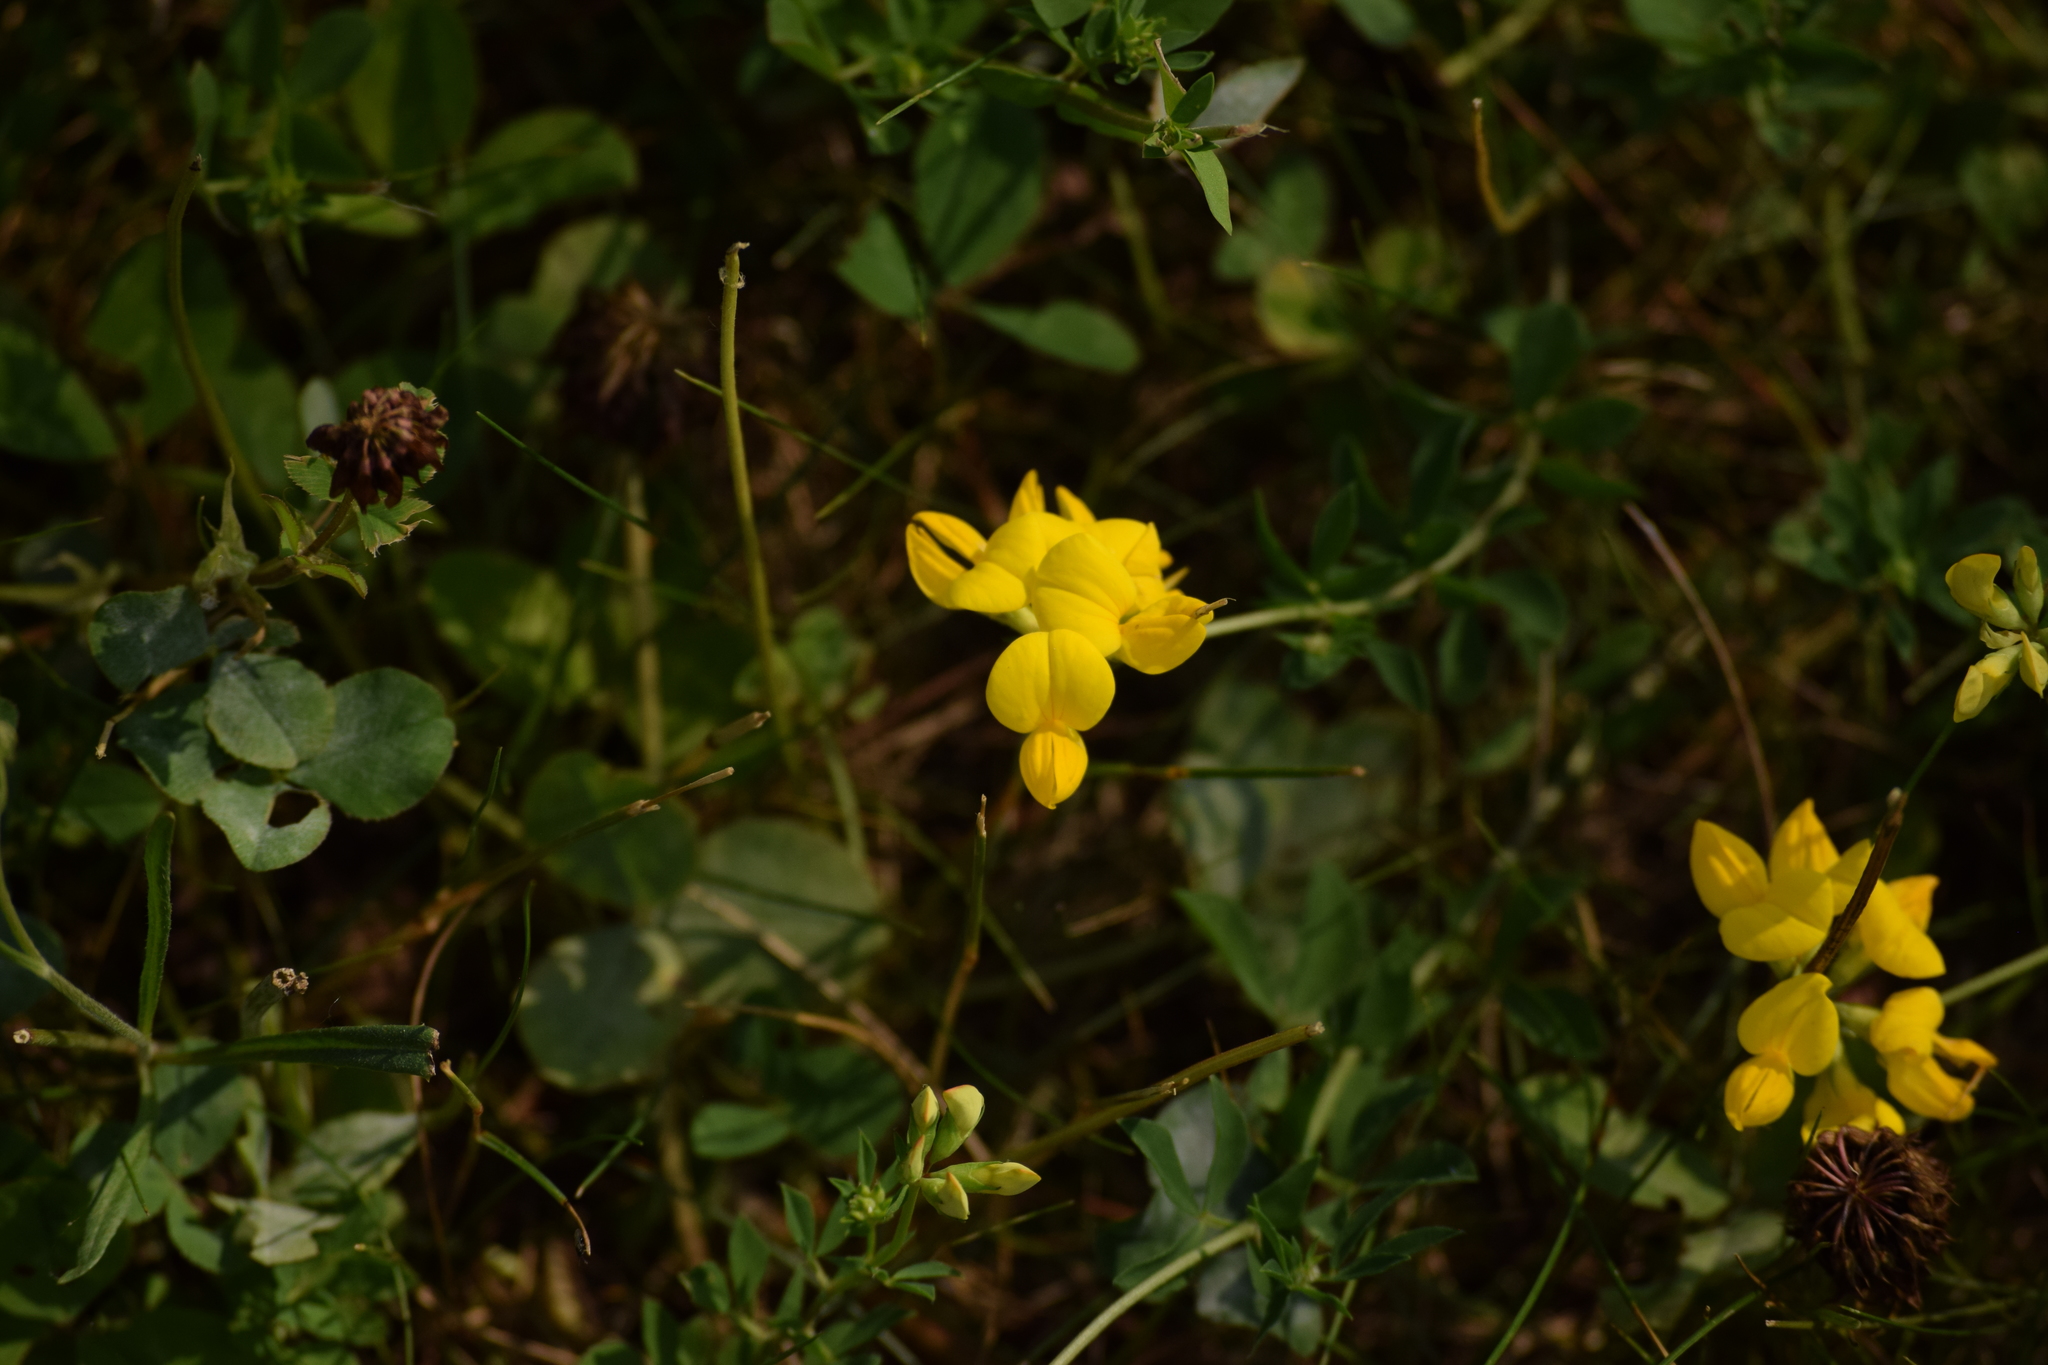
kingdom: Plantae
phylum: Tracheophyta
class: Magnoliopsida
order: Fabales
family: Fabaceae
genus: Lotus
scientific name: Lotus corniculatus
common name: Common bird's-foot-trefoil
